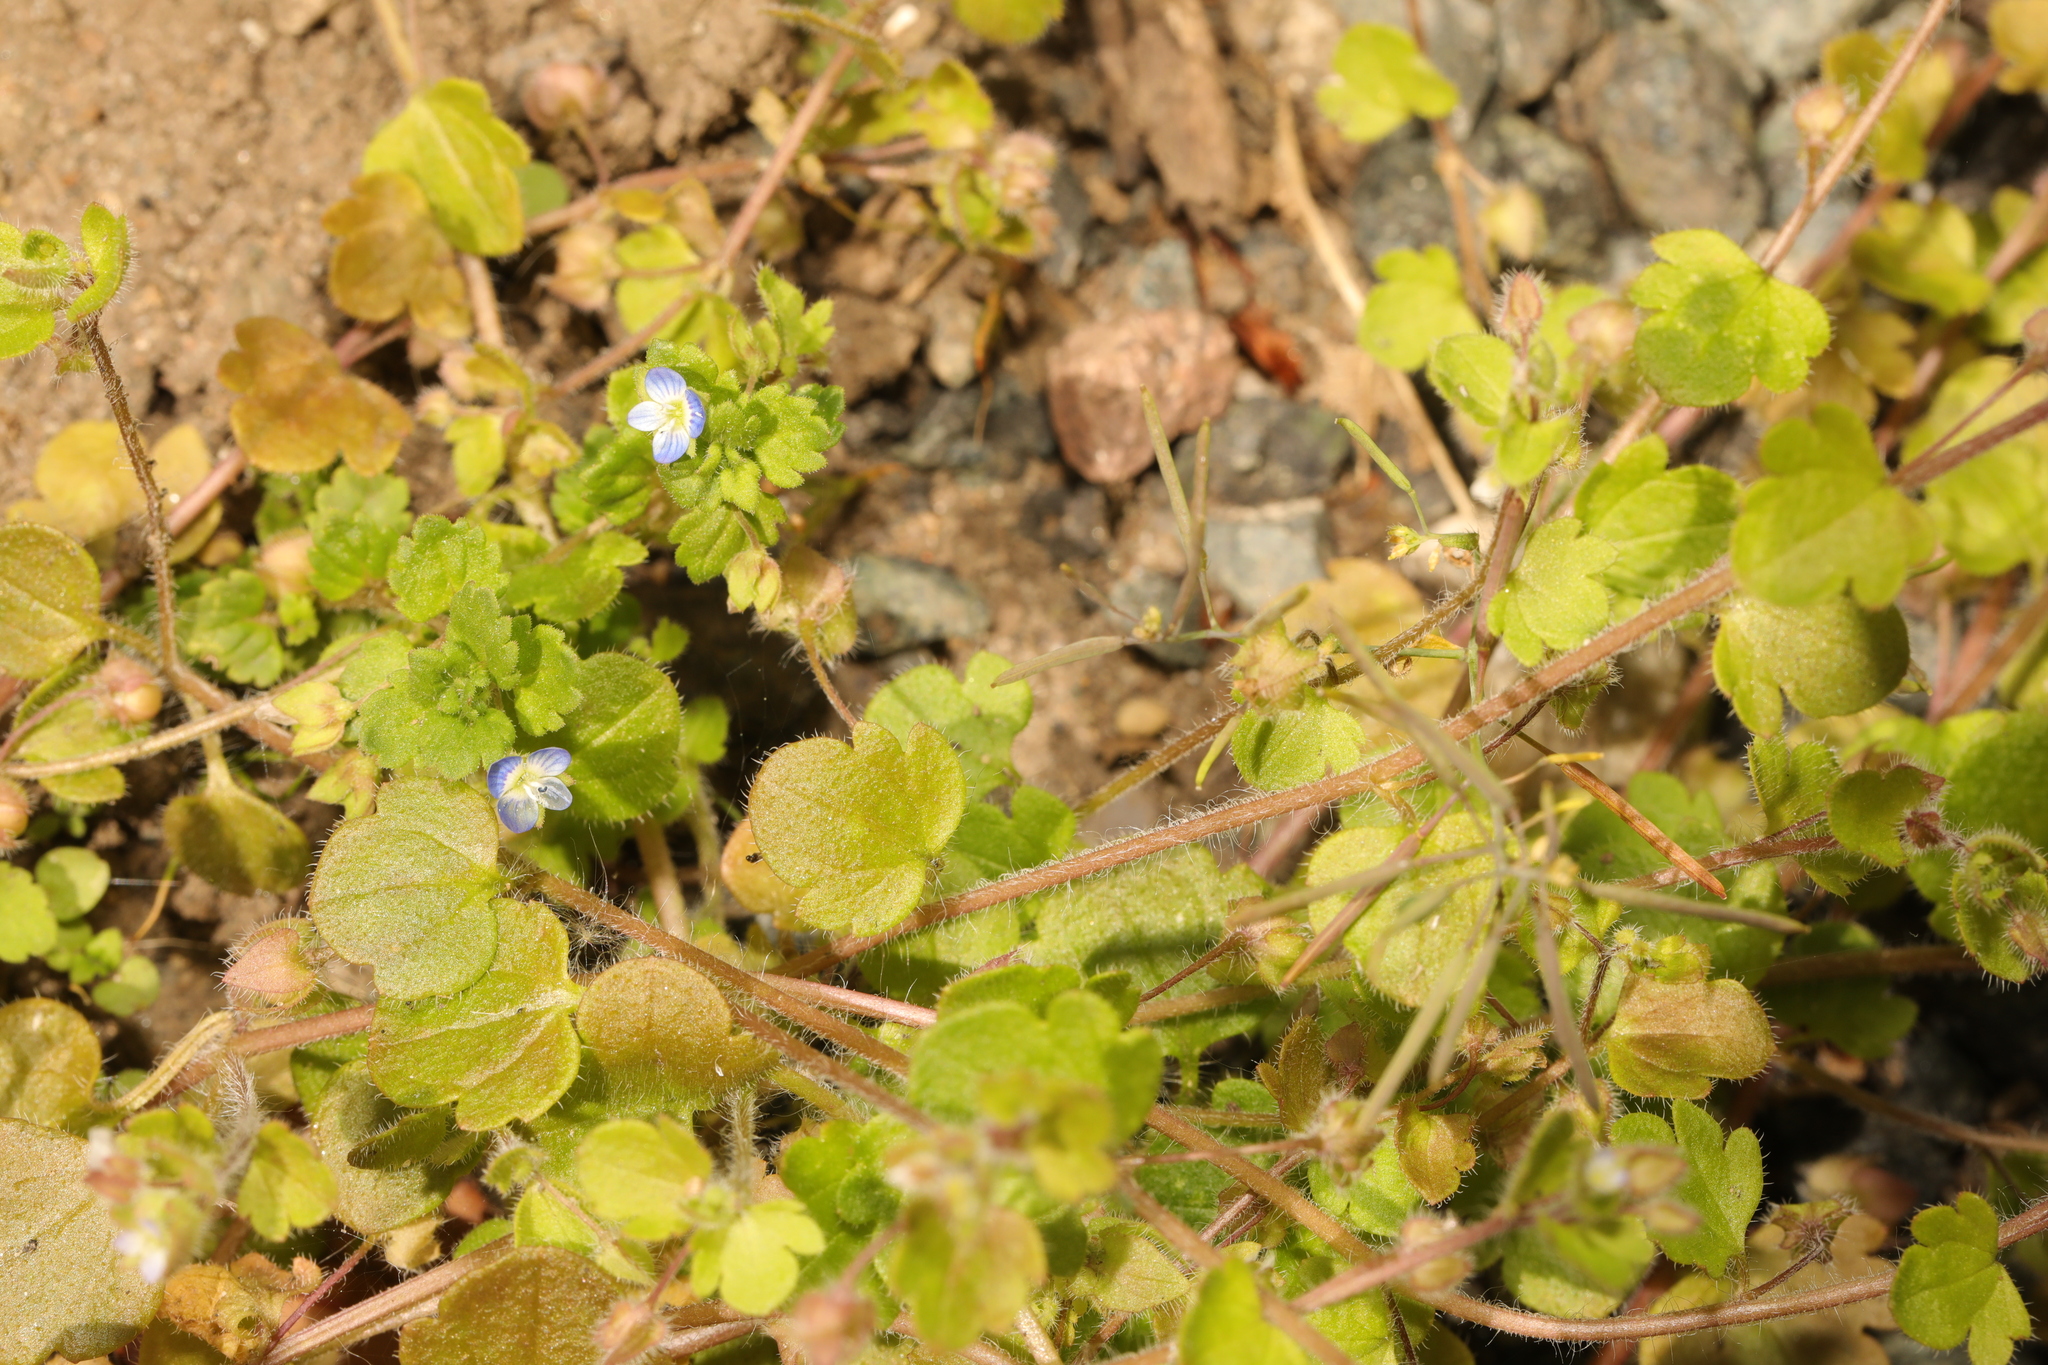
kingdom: Plantae
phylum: Tracheophyta
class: Magnoliopsida
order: Lamiales
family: Plantaginaceae
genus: Veronica
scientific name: Veronica polita
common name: Grey field-speedwell
